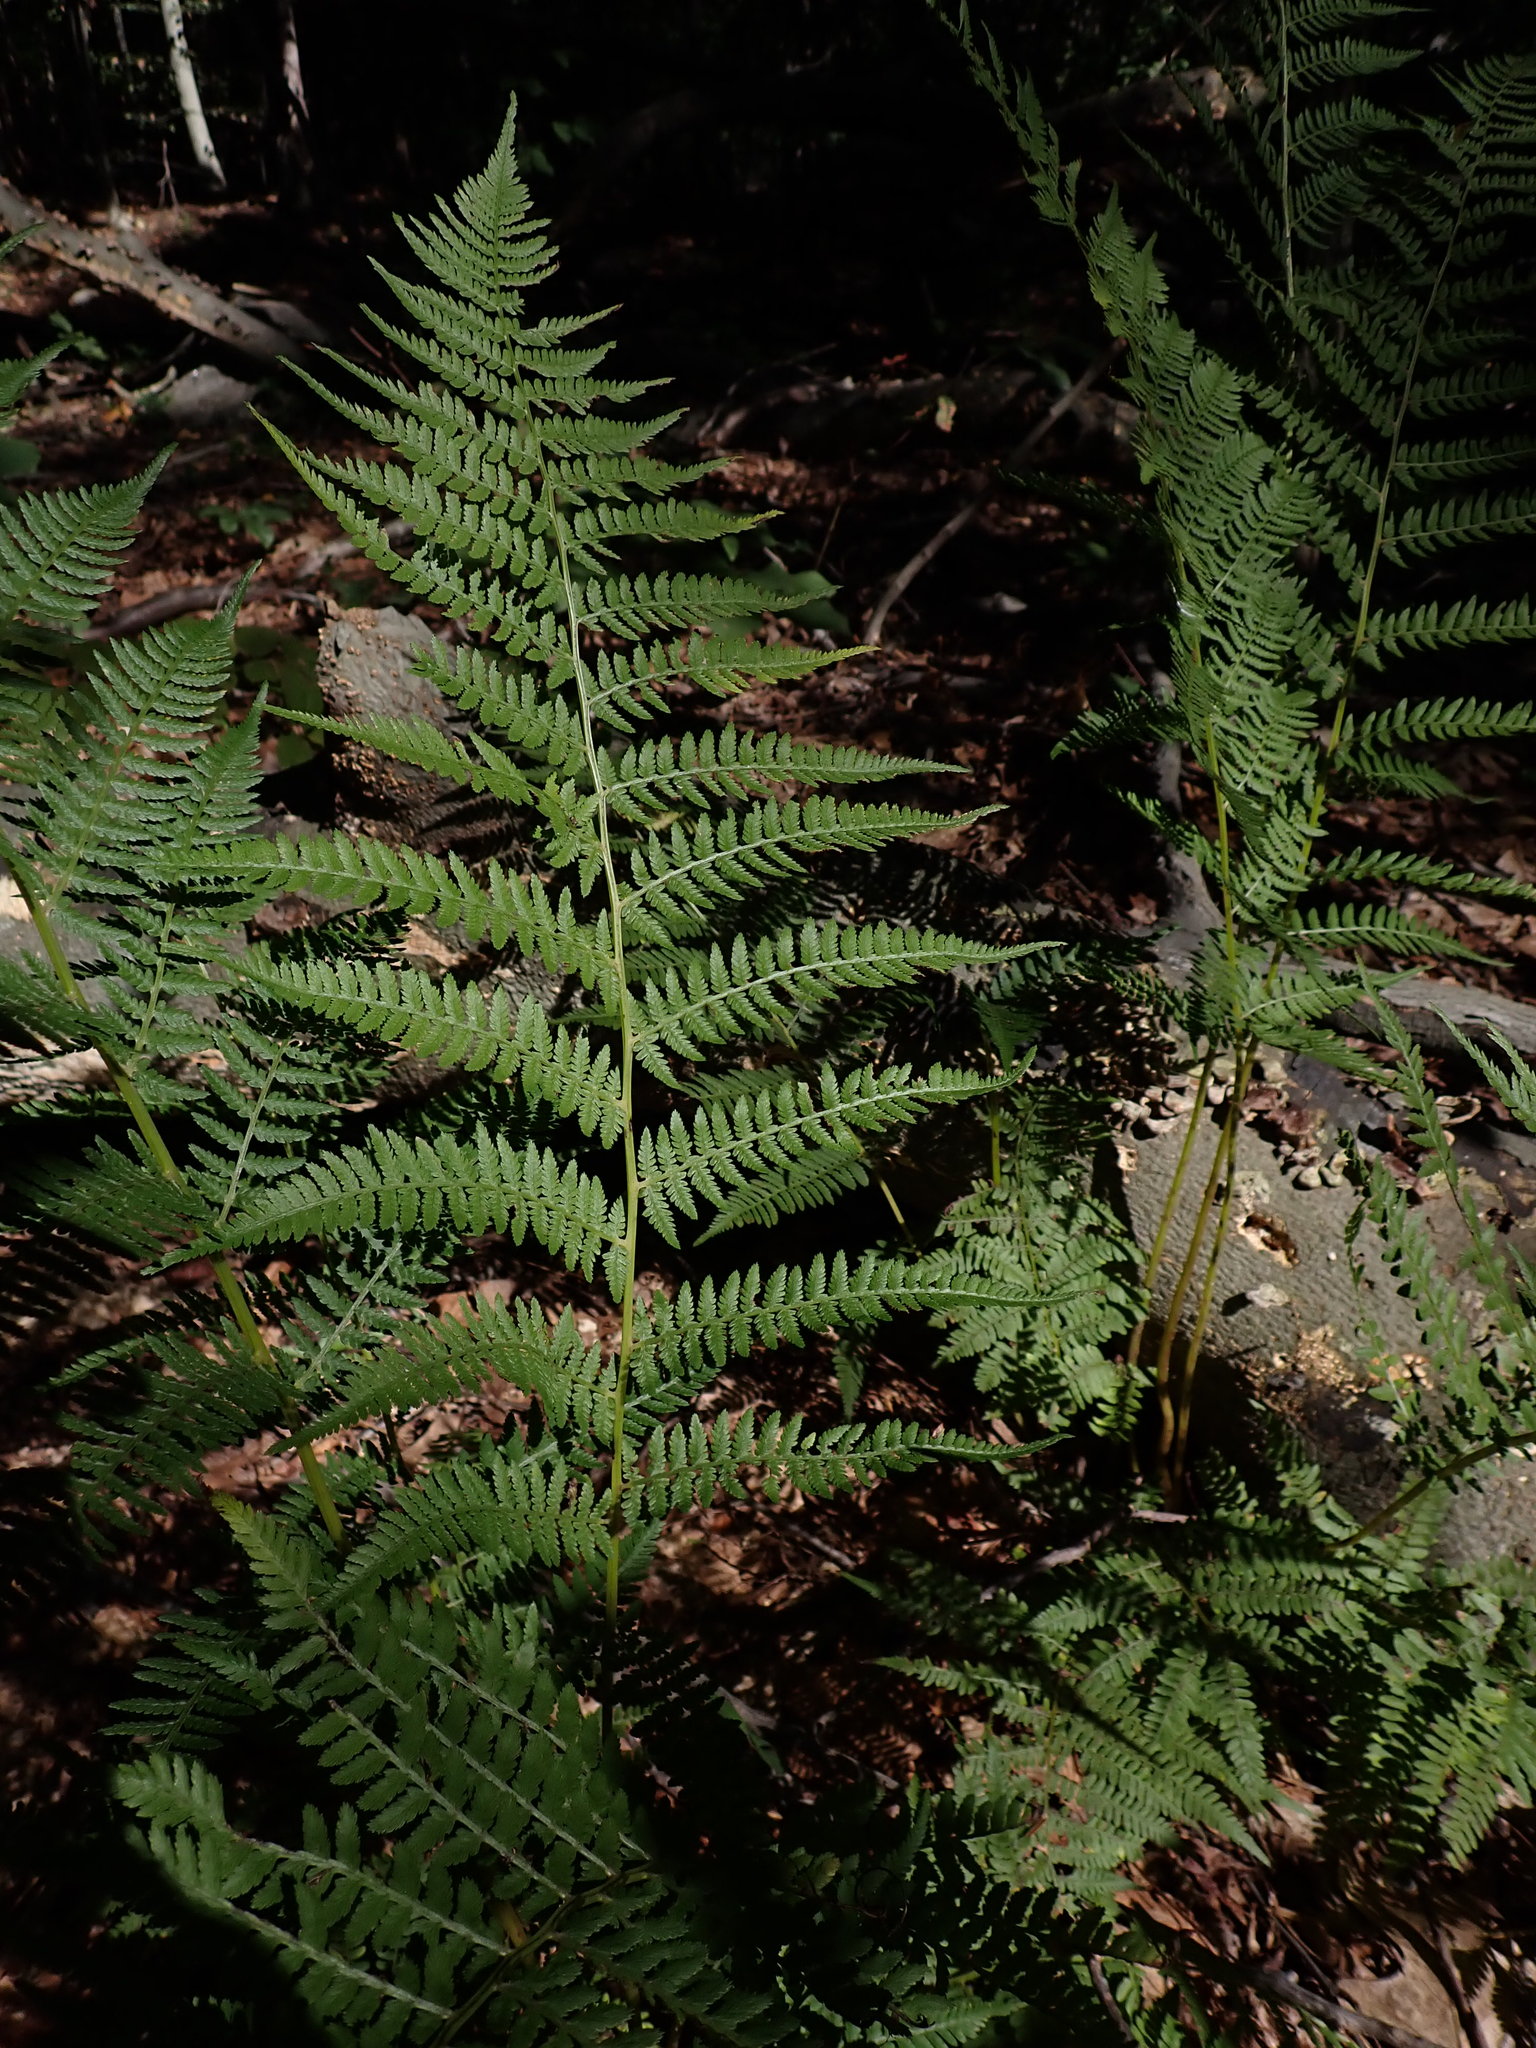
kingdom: Plantae
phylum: Tracheophyta
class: Polypodiopsida
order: Polypodiales
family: Athyriaceae
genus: Athyrium
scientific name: Athyrium angustum
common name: Northern lady fern
